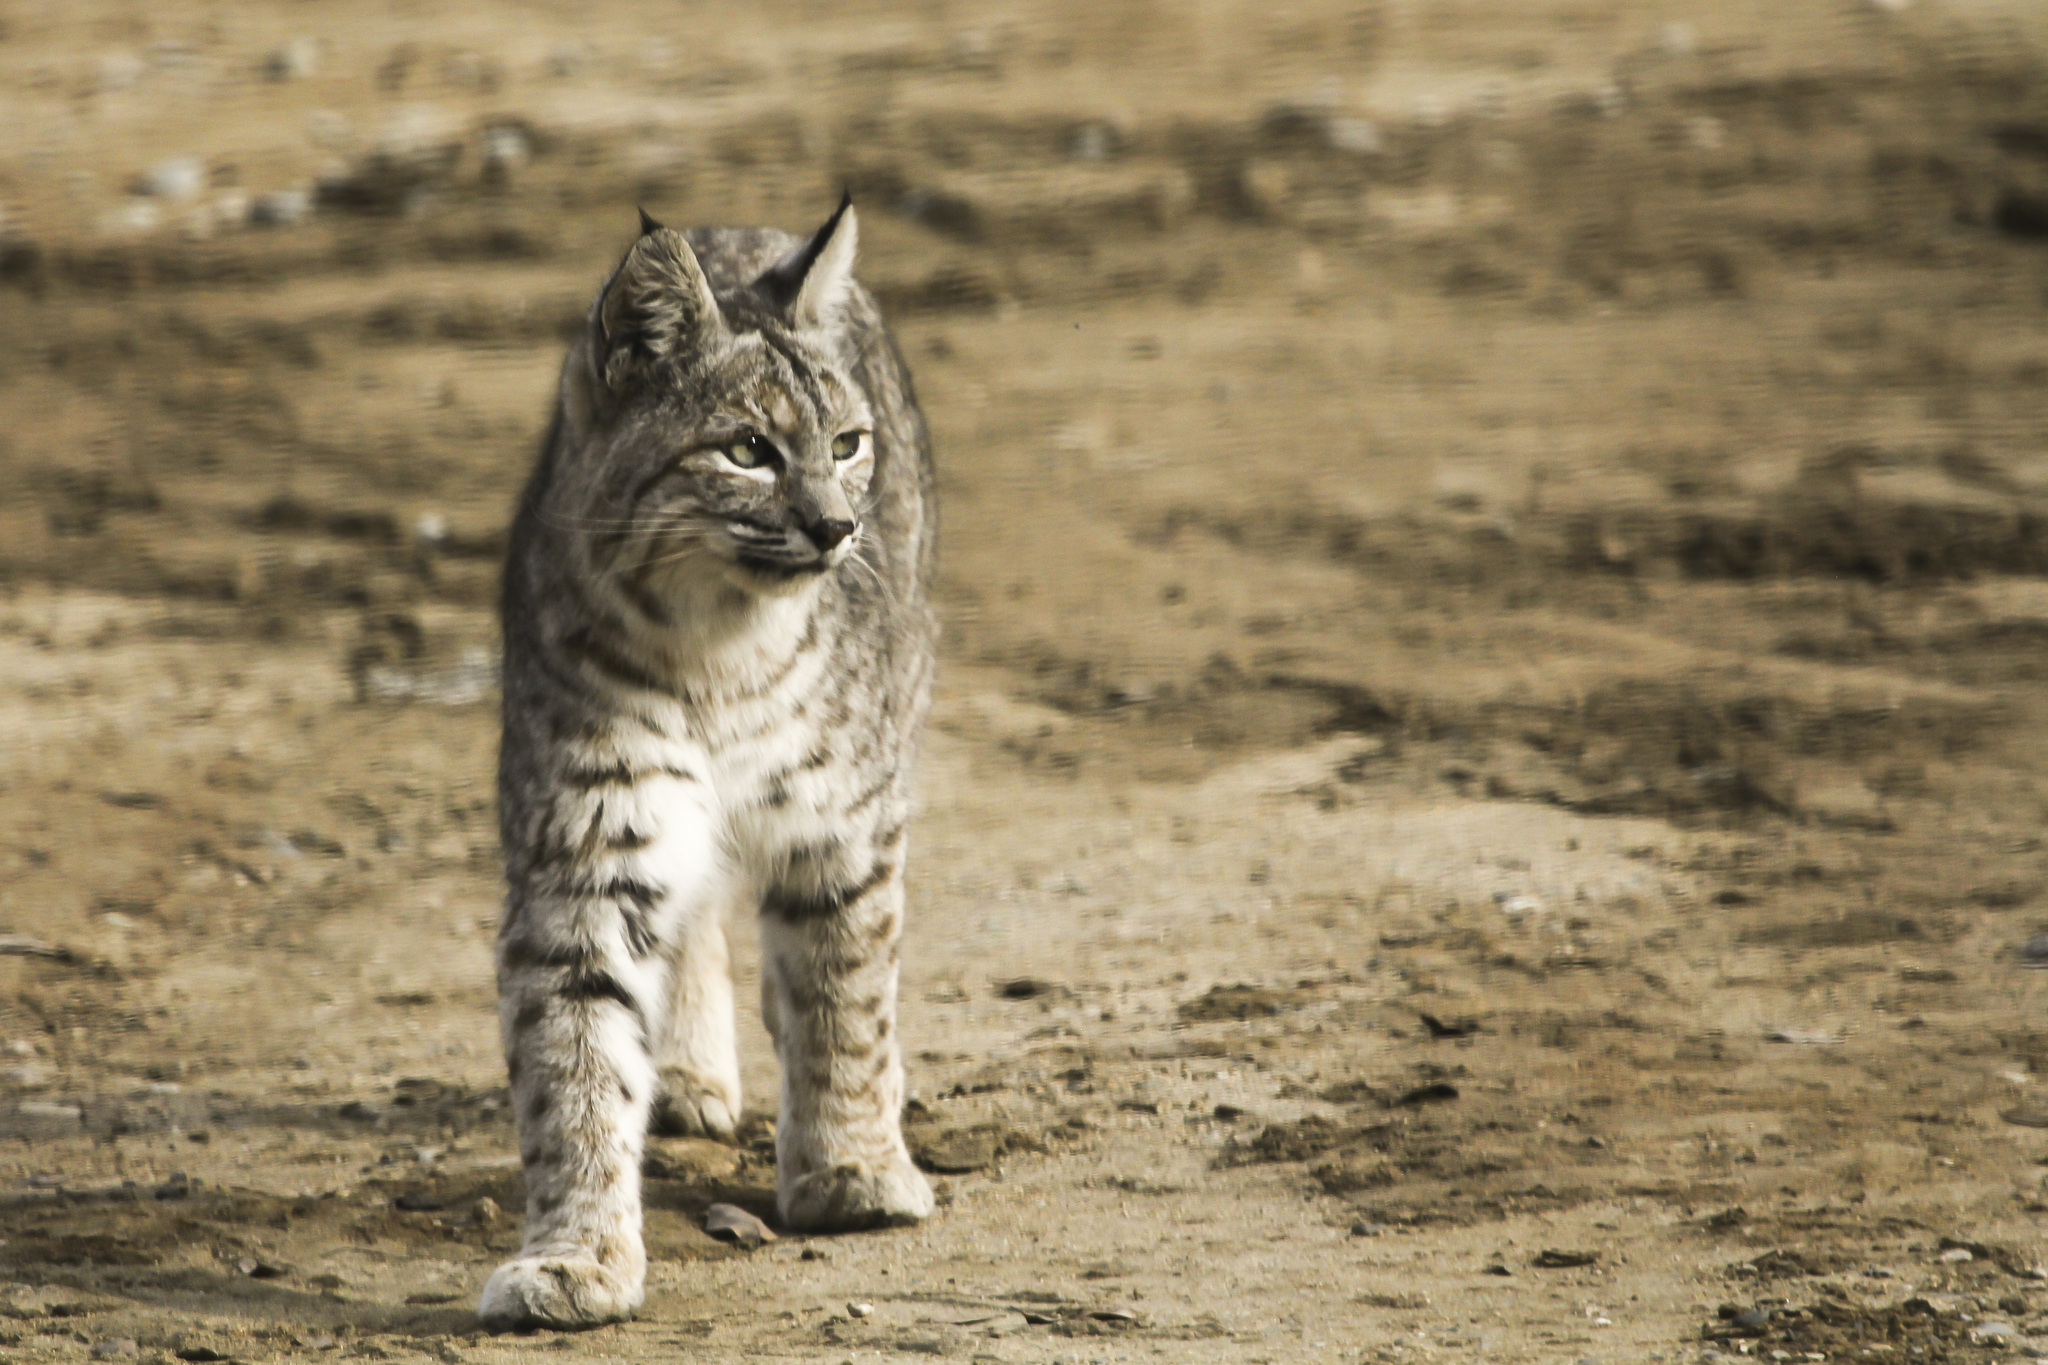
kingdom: Animalia
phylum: Chordata
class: Mammalia
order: Carnivora
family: Felidae
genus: Lynx
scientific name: Lynx rufus
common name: Bobcat
